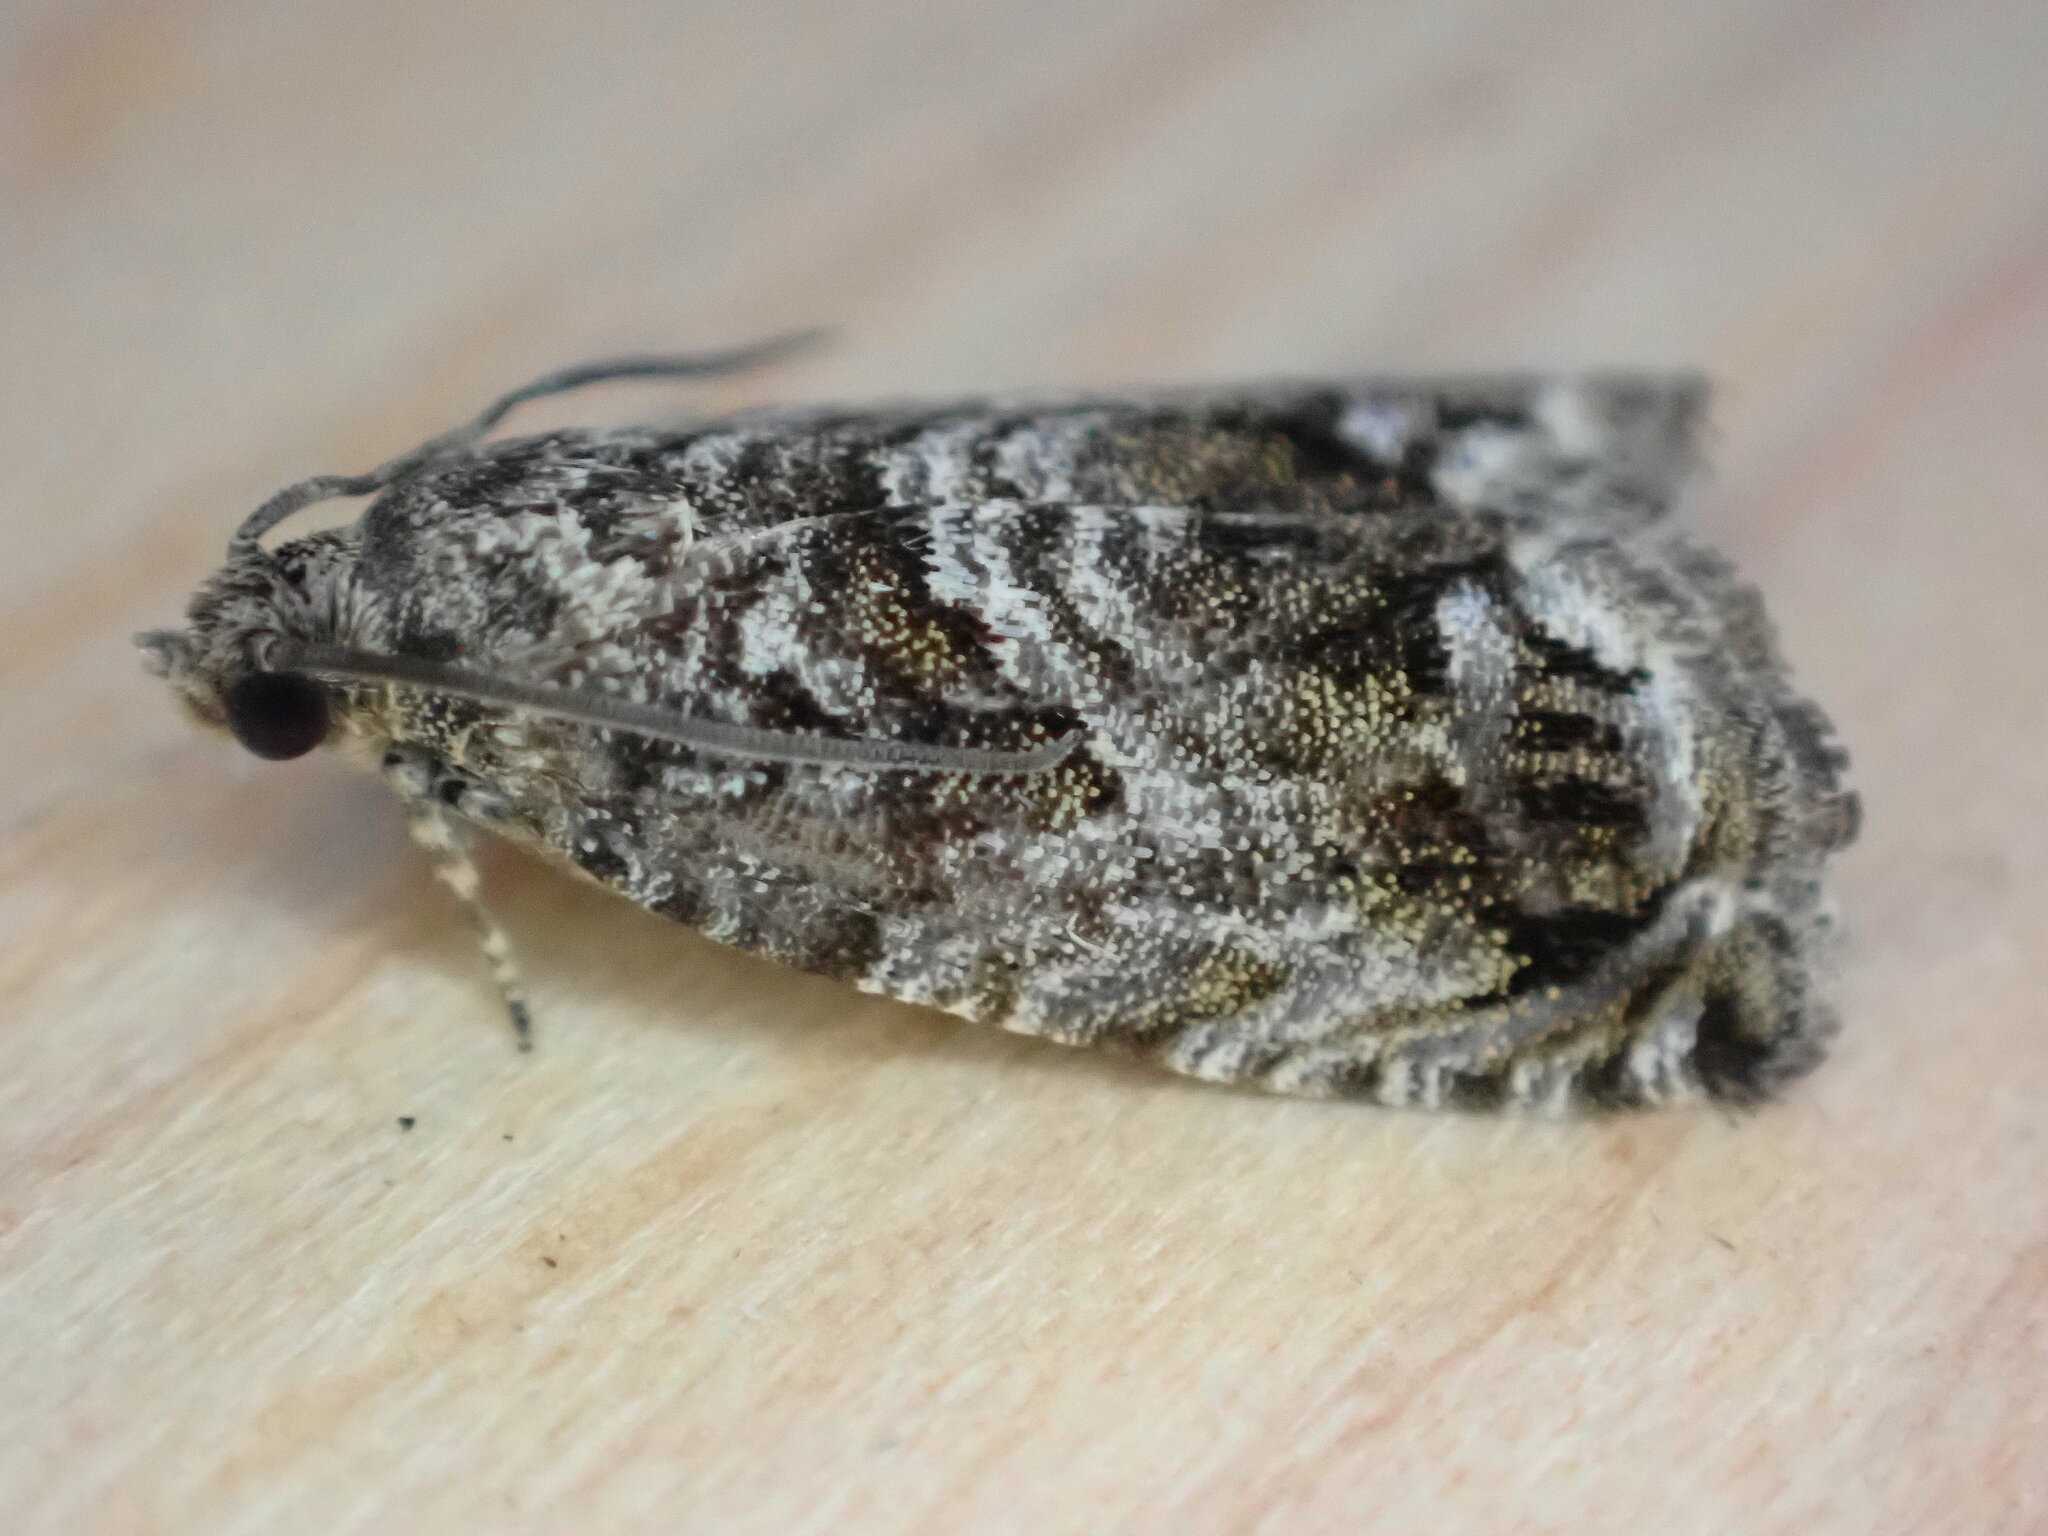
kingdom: Animalia
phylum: Arthropoda
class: Insecta
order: Lepidoptera
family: Tortricidae
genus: Cydia
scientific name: Cydia fagiglandana
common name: Large beech piercer
